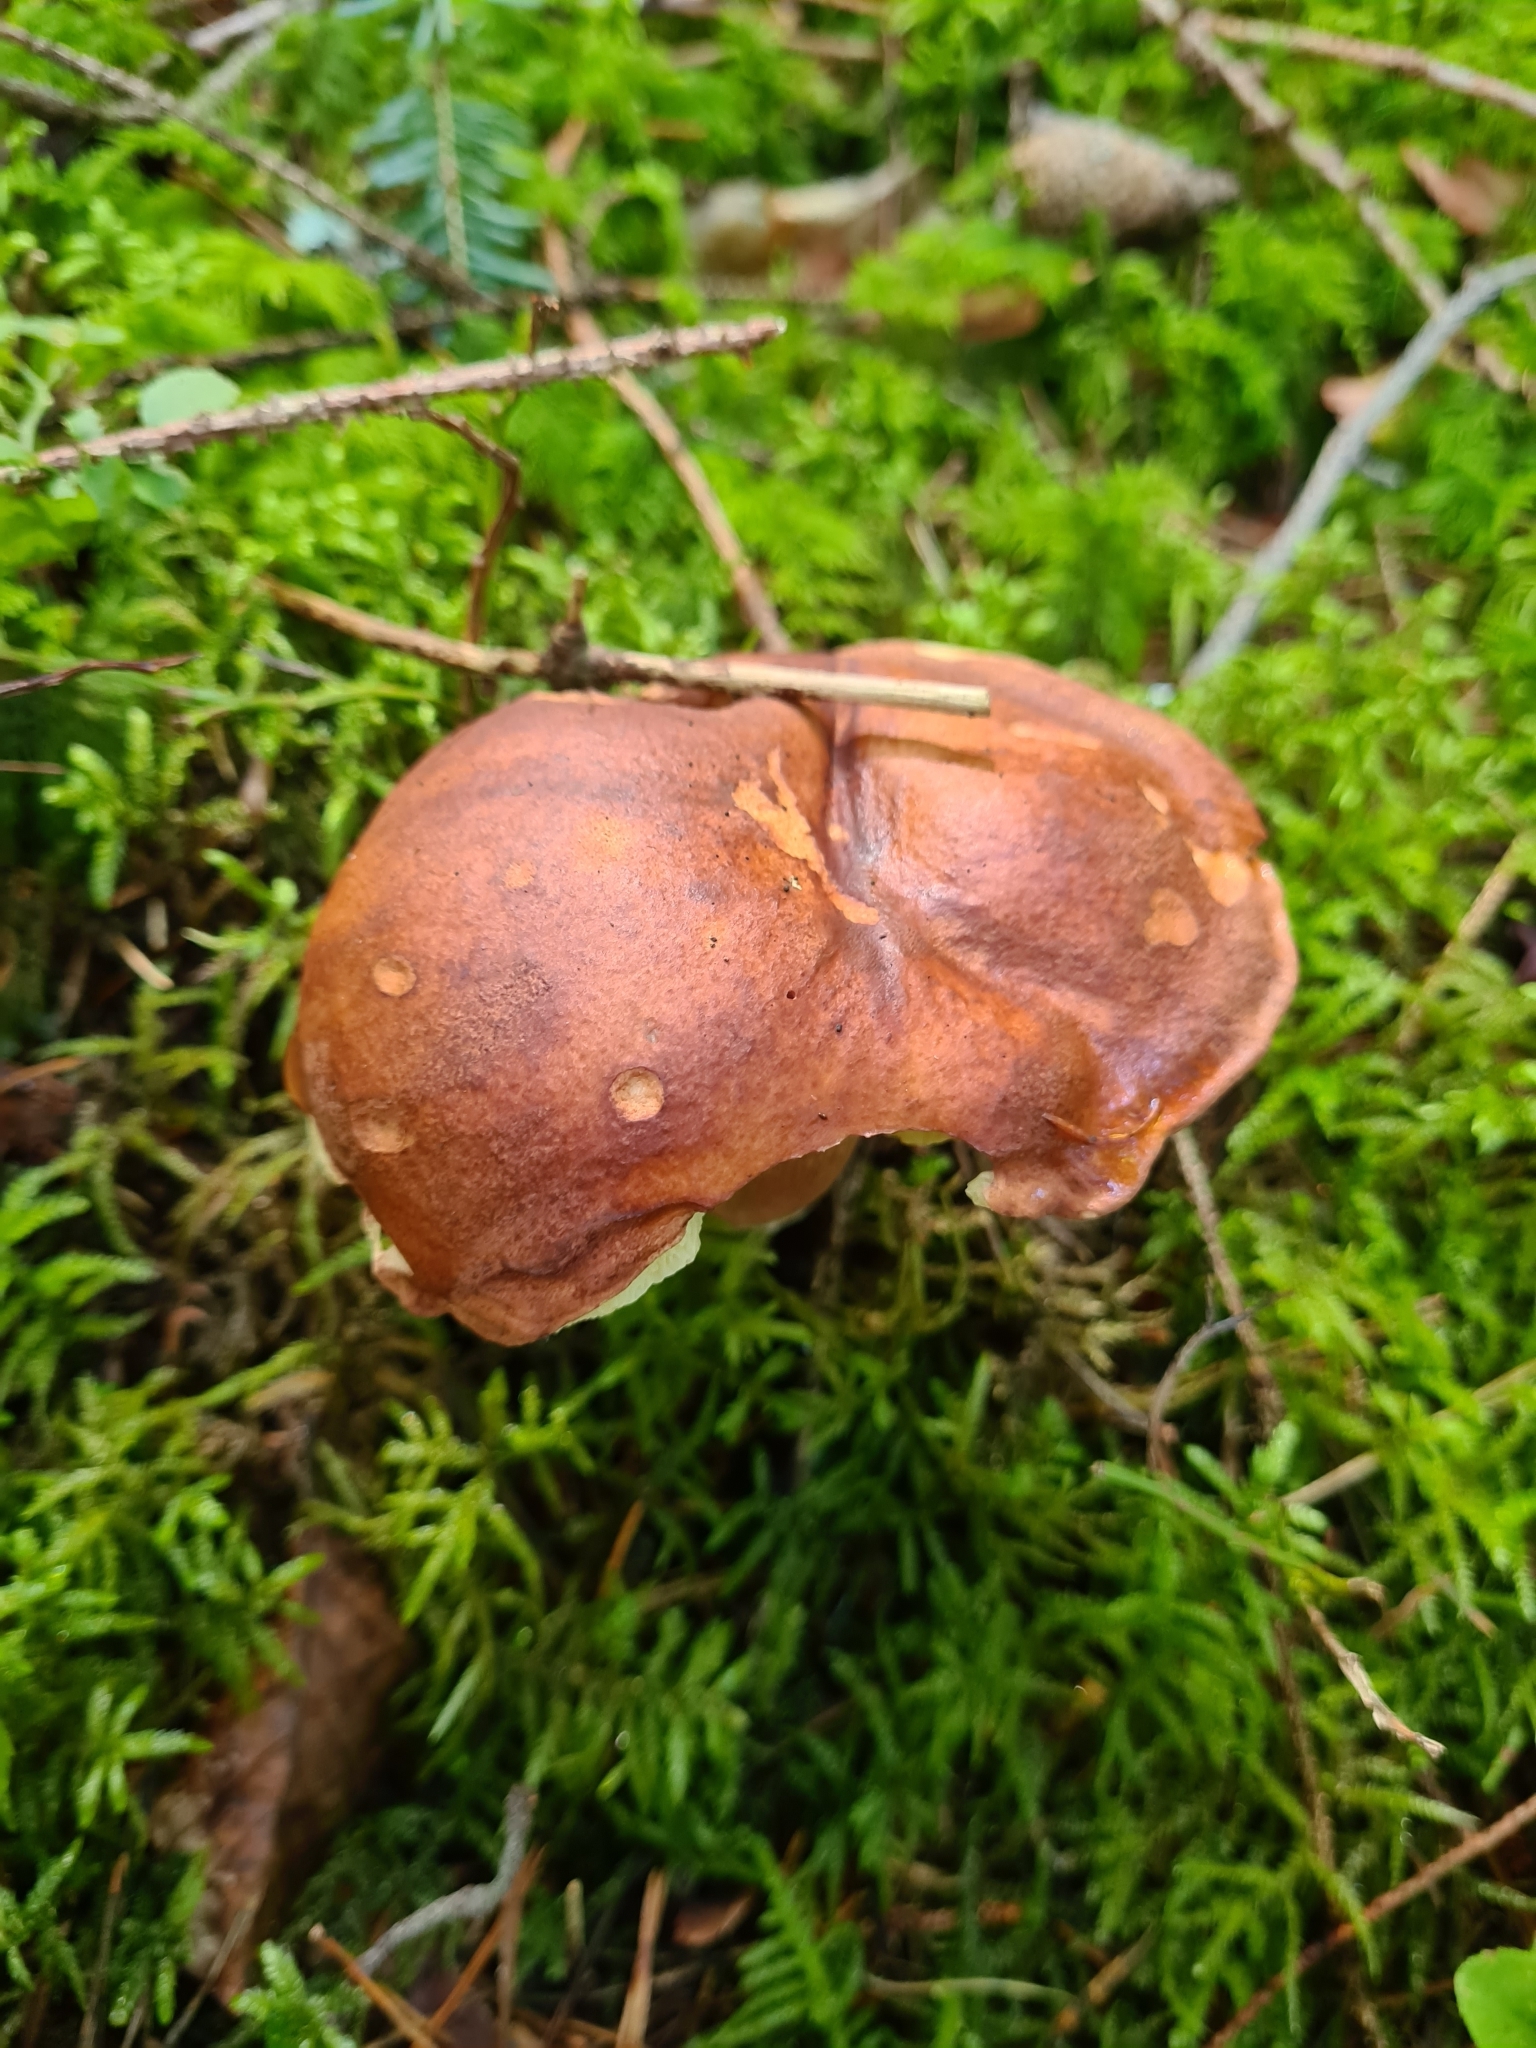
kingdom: Fungi
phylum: Basidiomycota
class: Agaricomycetes
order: Boletales
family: Boletaceae
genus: Imleria
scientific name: Imleria badia
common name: Bay bolete
